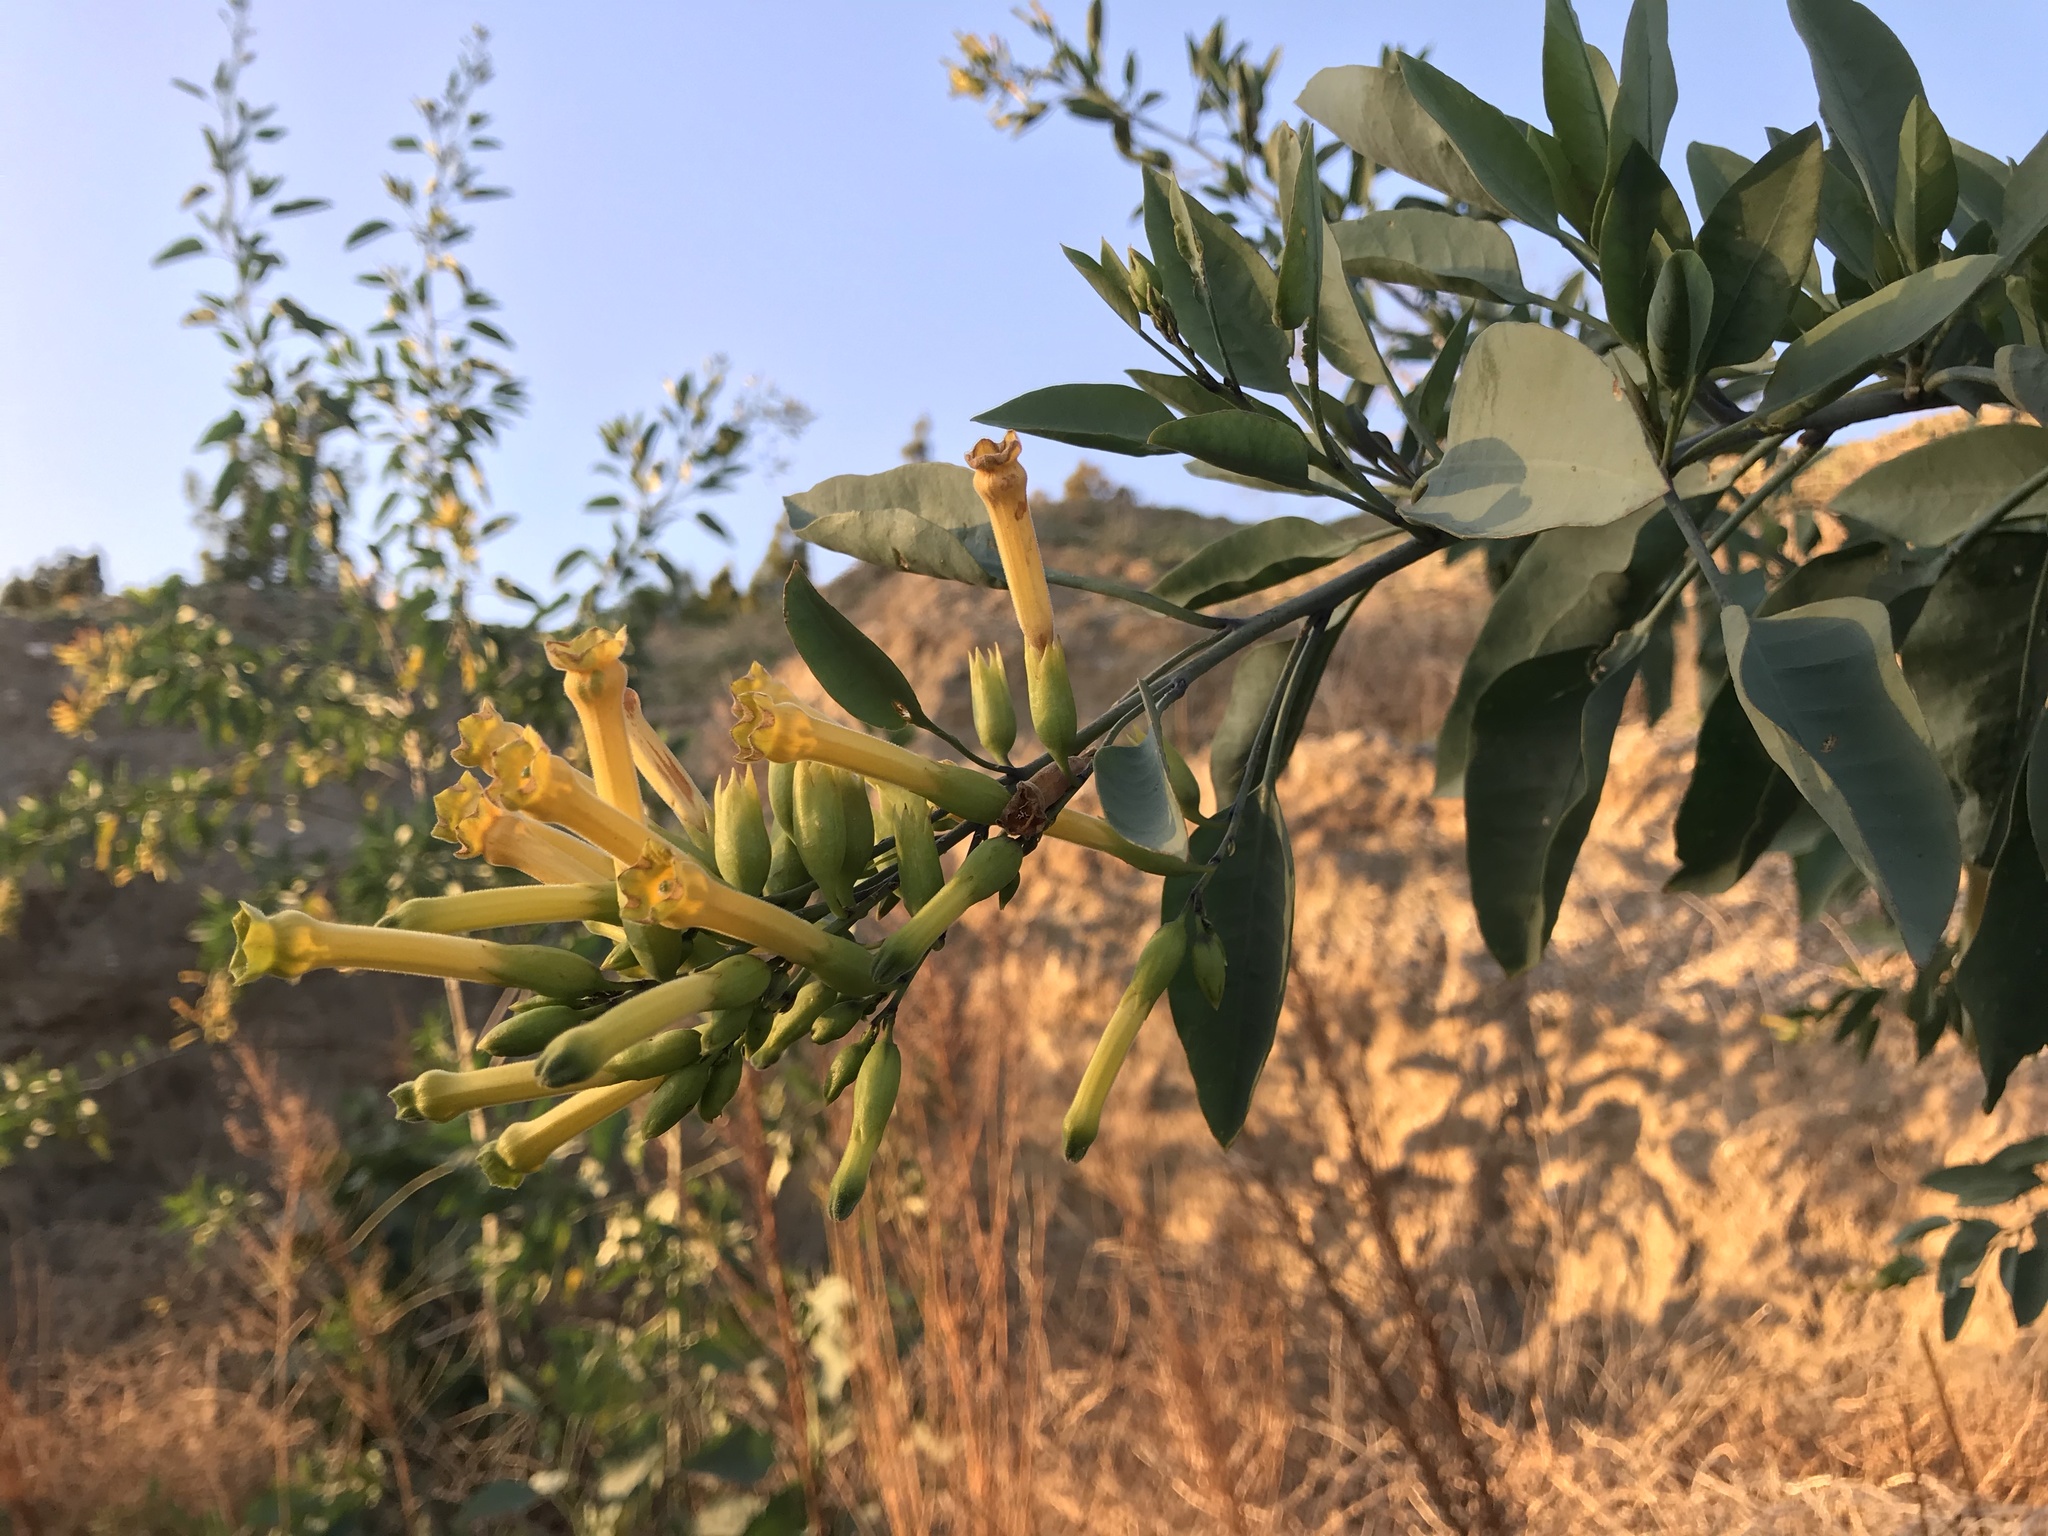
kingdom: Plantae
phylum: Tracheophyta
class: Magnoliopsida
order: Solanales
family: Solanaceae
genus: Nicotiana
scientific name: Nicotiana glauca
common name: Tree tobacco
